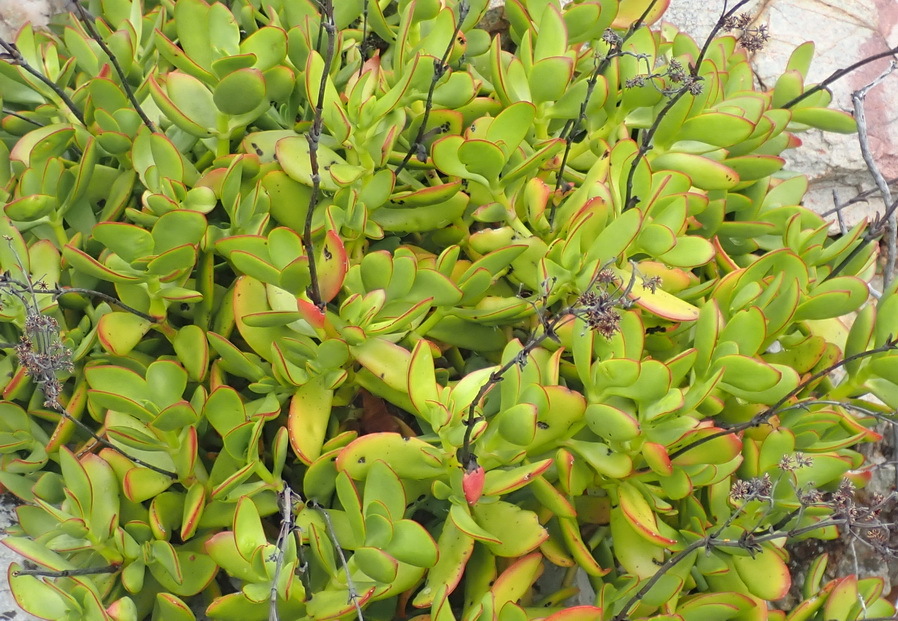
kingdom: Plantae
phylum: Tracheophyta
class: Magnoliopsida
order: Saxifragales
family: Crassulaceae
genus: Crassula
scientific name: Crassula cultrata
